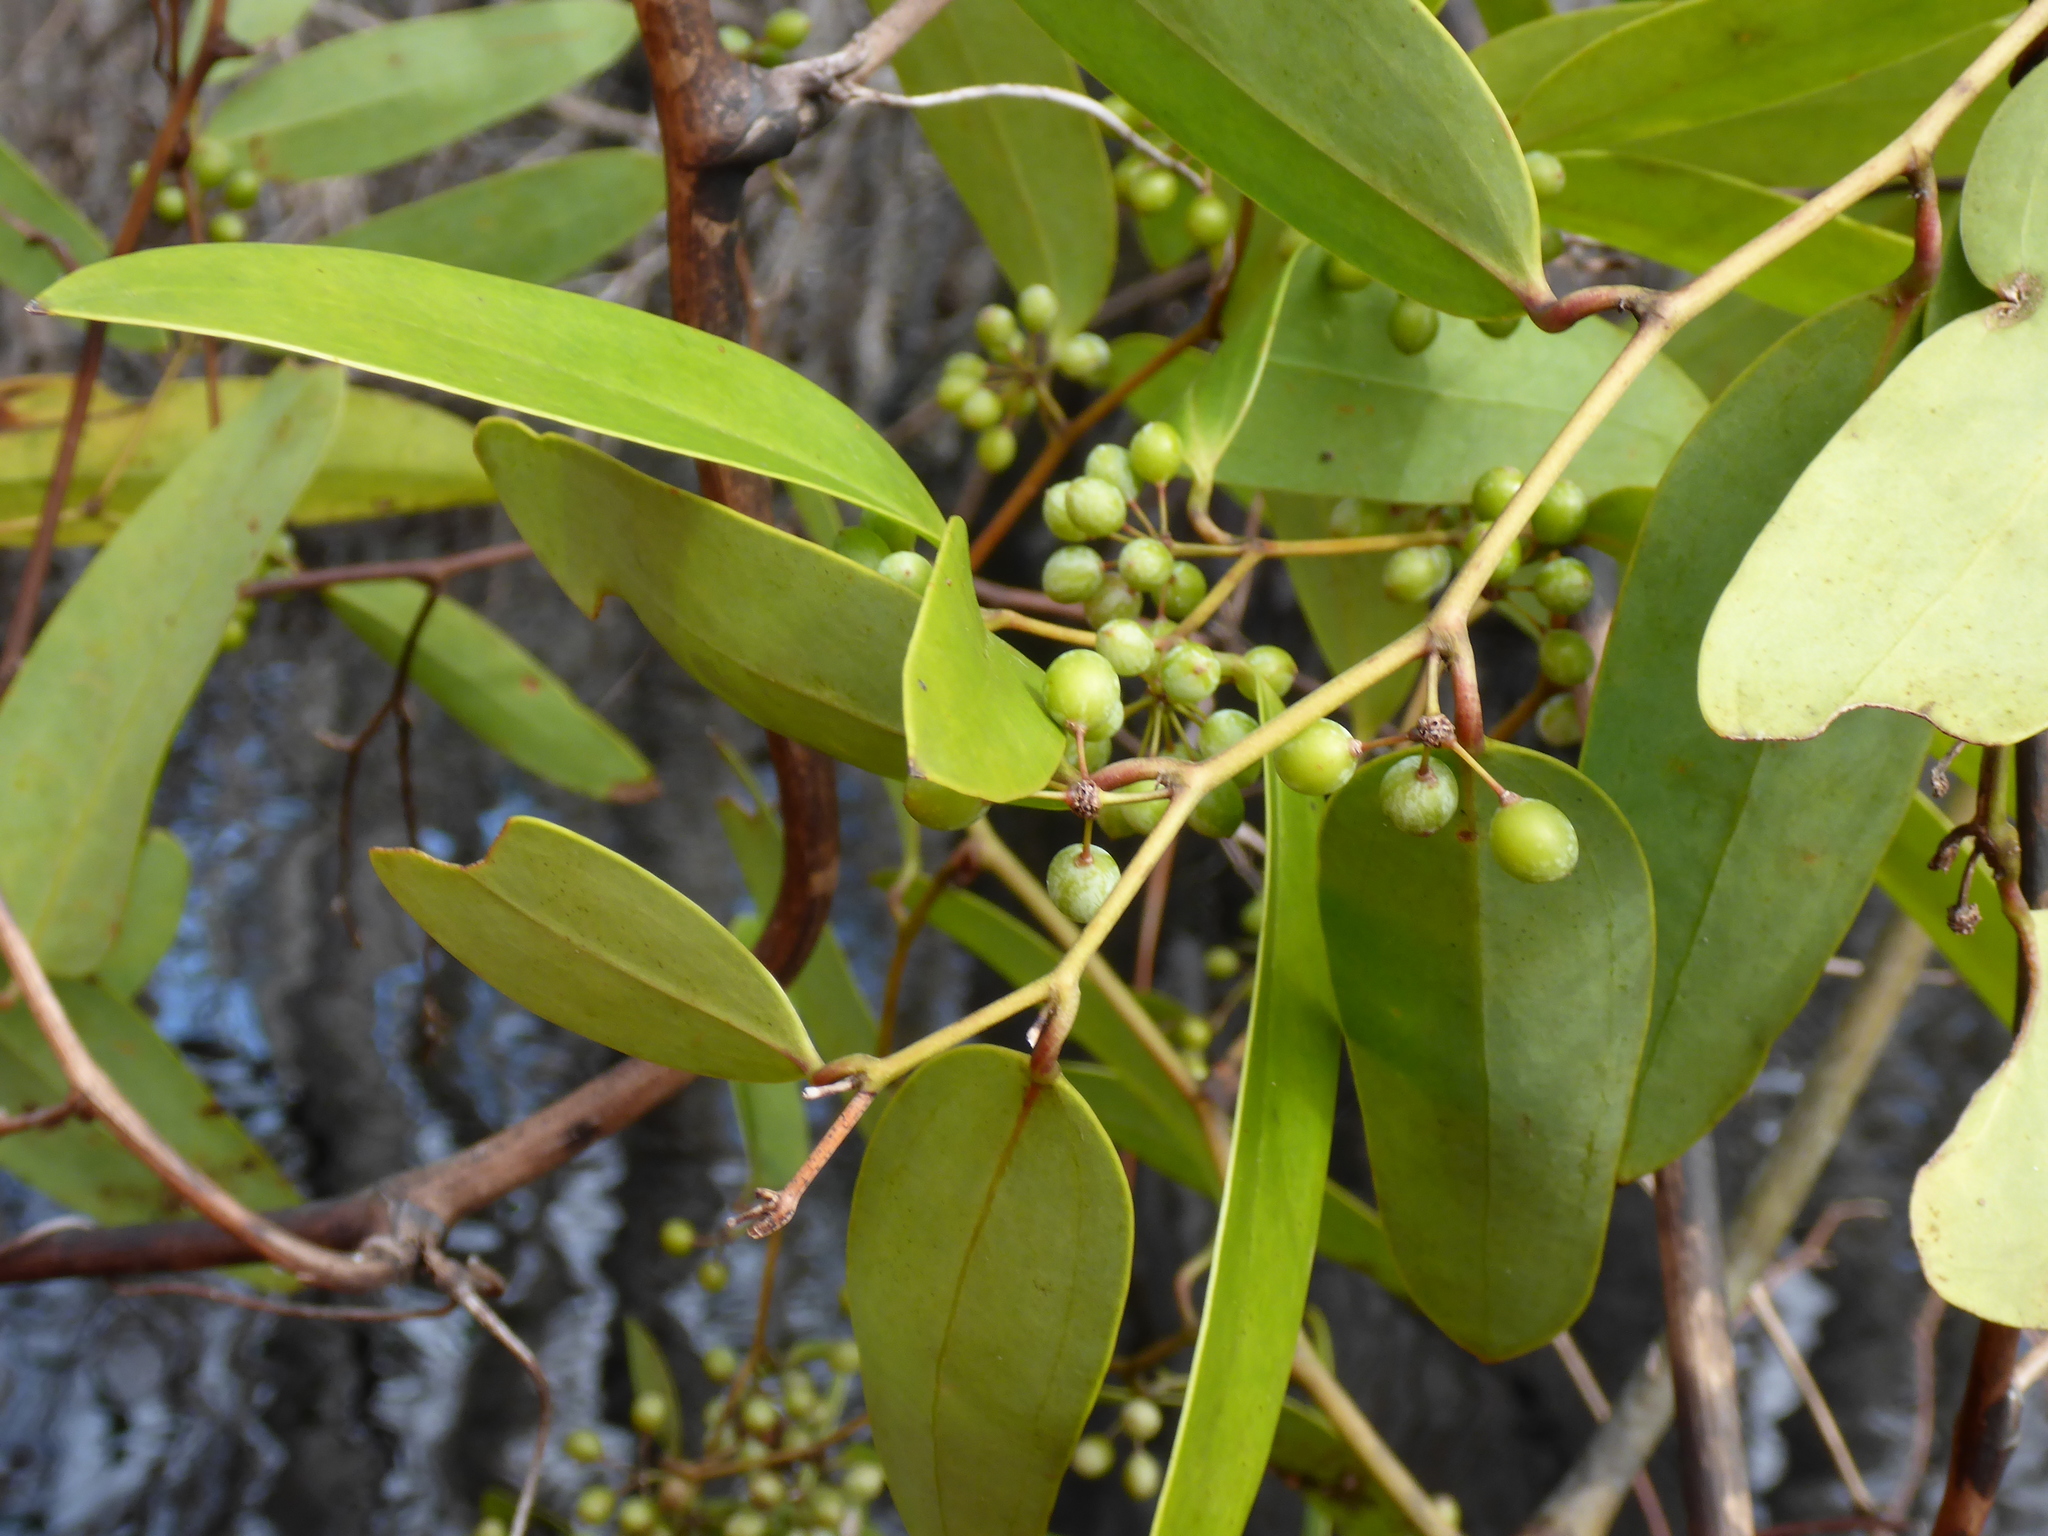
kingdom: Plantae
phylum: Tracheophyta
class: Liliopsida
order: Liliales
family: Smilacaceae
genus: Smilax
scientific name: Smilax laurifolia
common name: Bamboovine
